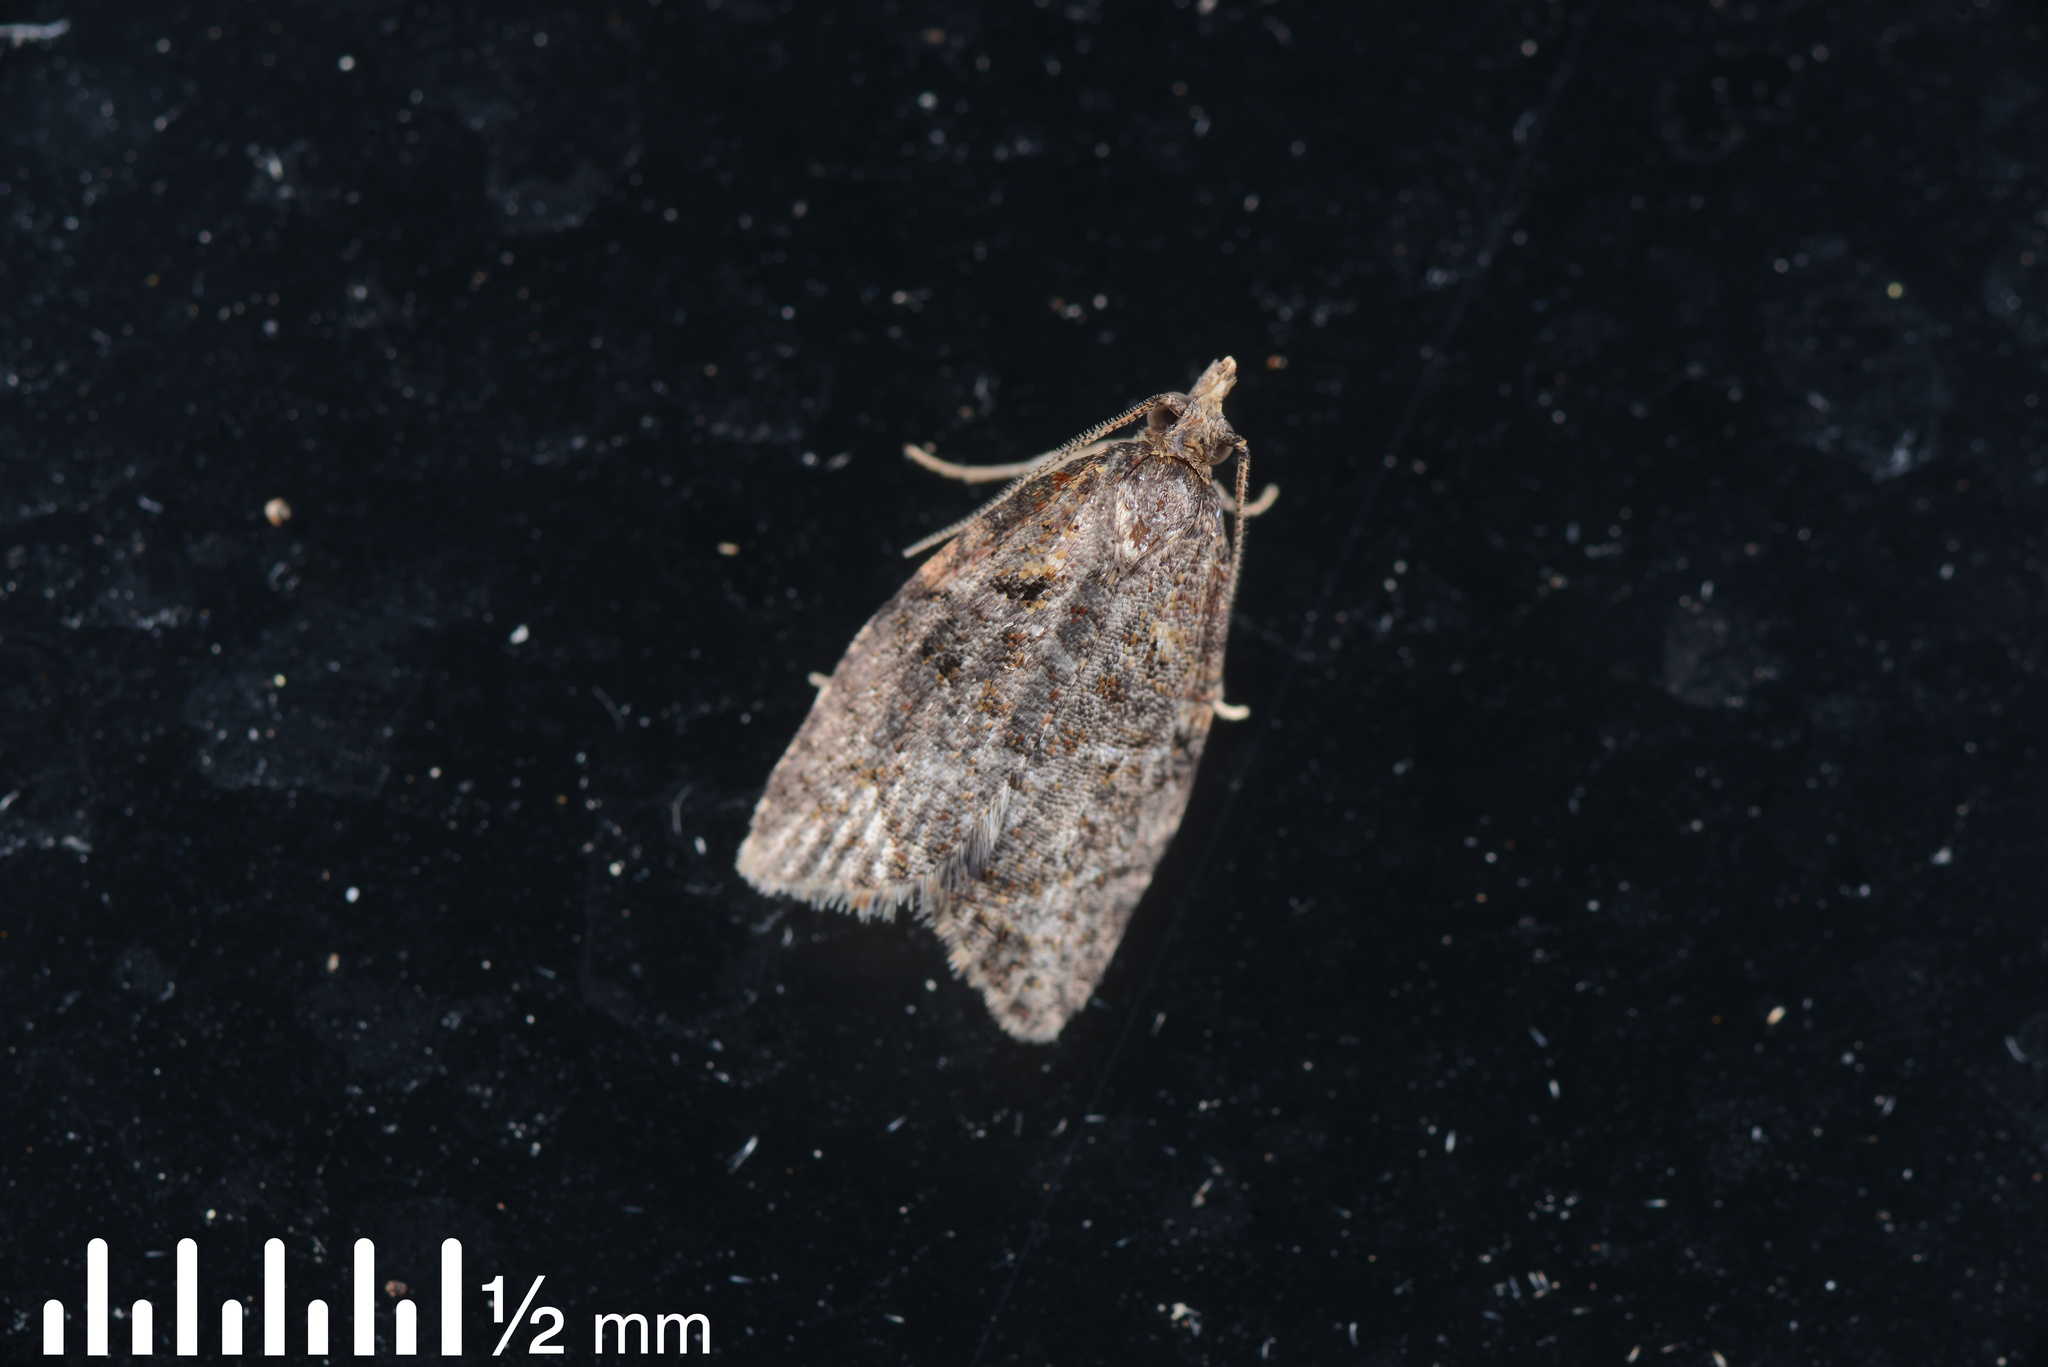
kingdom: Animalia
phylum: Arthropoda
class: Insecta
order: Lepidoptera
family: Tortricidae
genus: Capua
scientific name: Capua intractana
